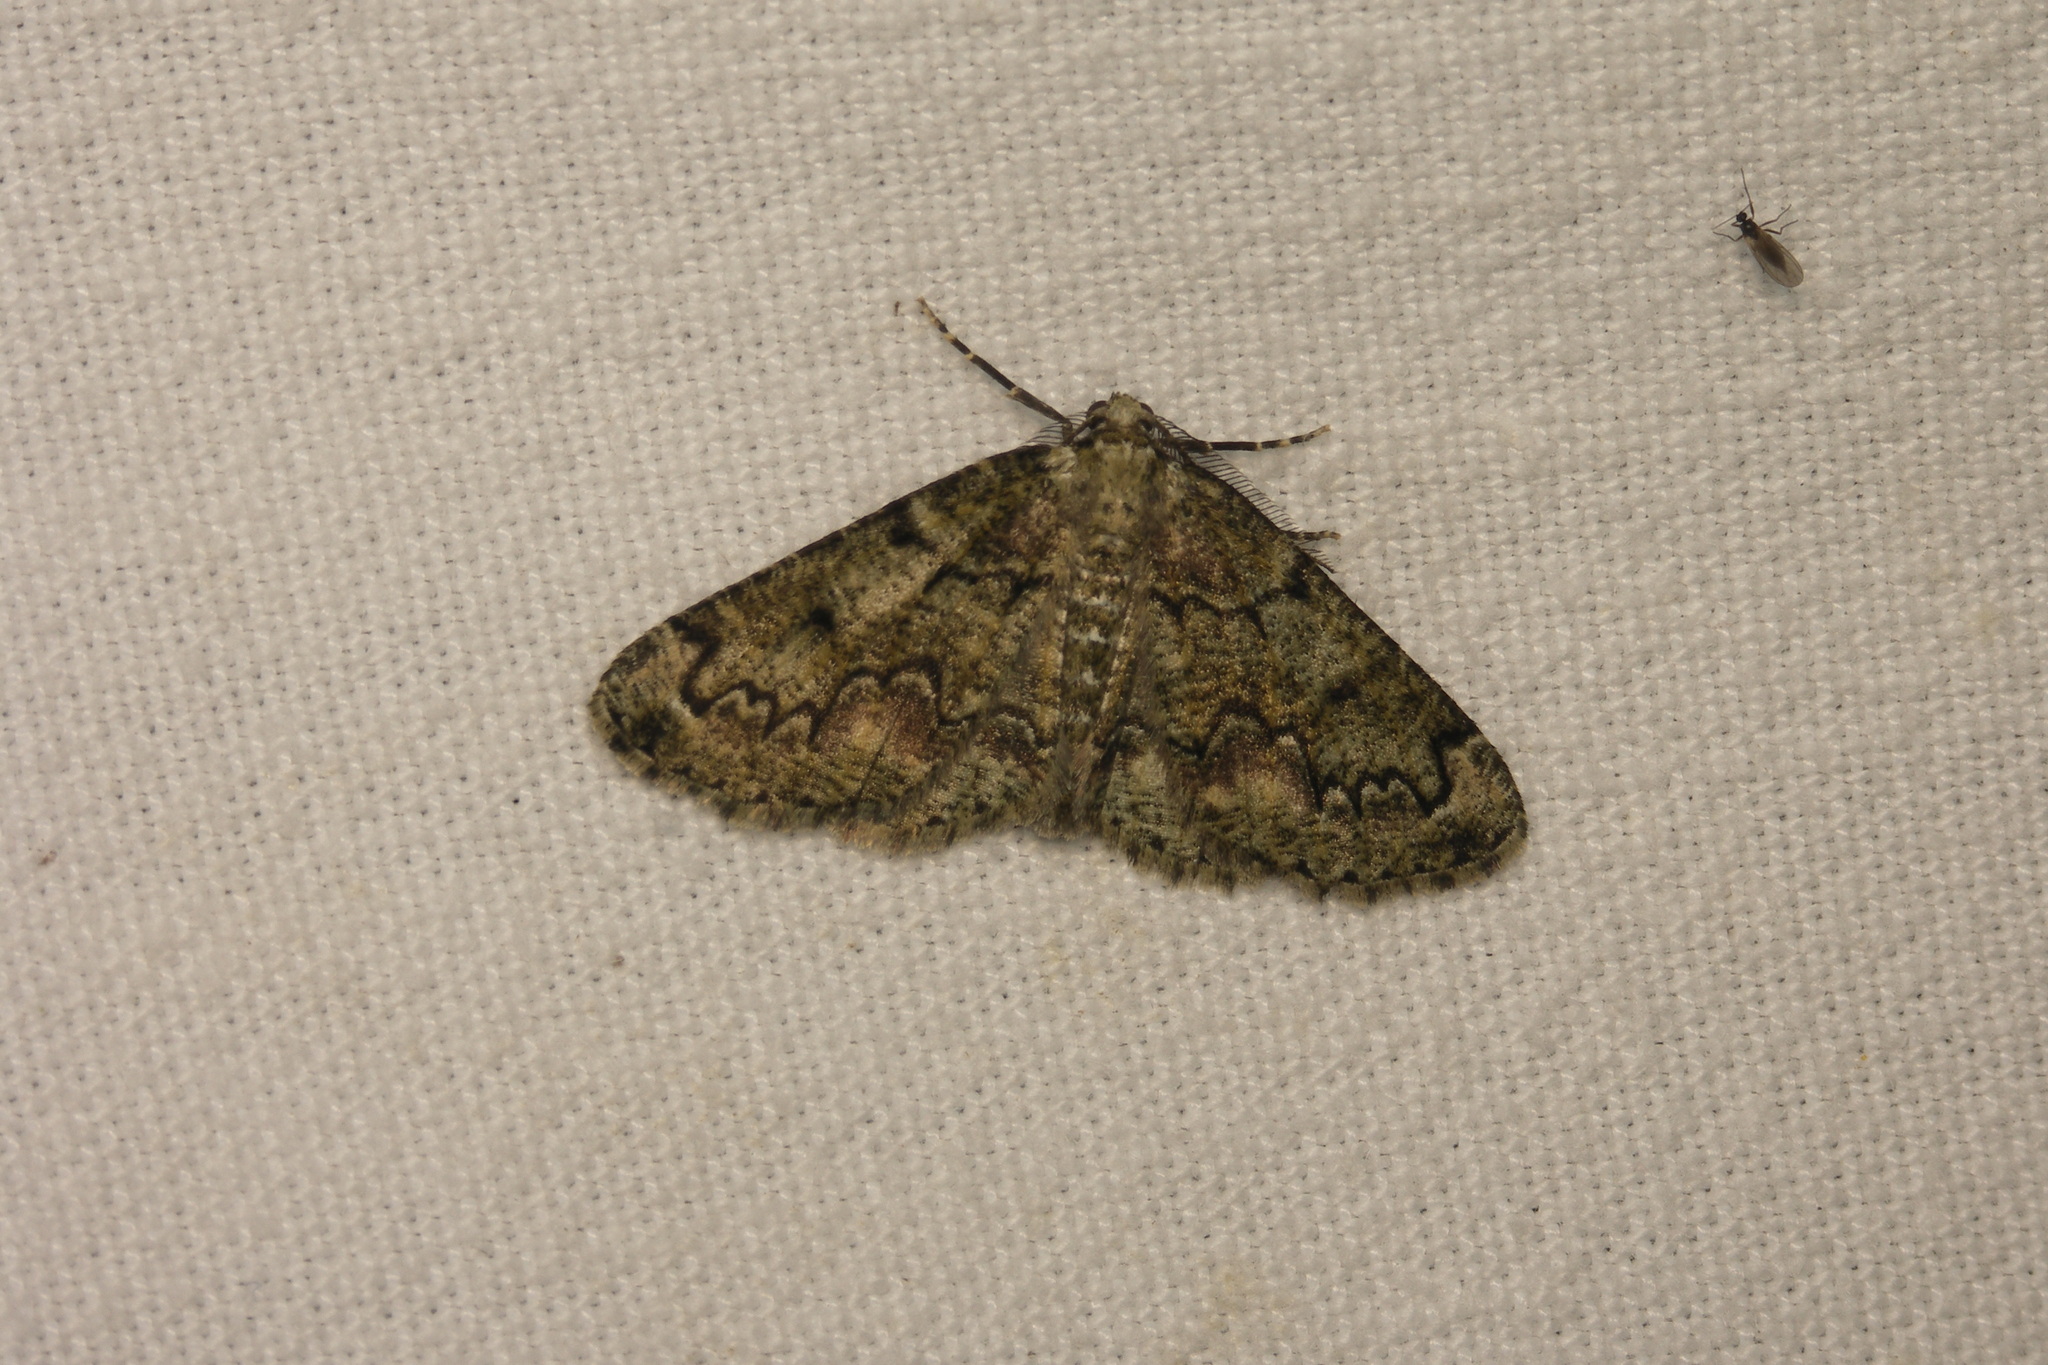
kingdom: Animalia
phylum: Arthropoda
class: Insecta
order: Lepidoptera
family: Geometridae
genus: Cleorodes
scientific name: Cleorodes lichenaria
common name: Brussels lace
